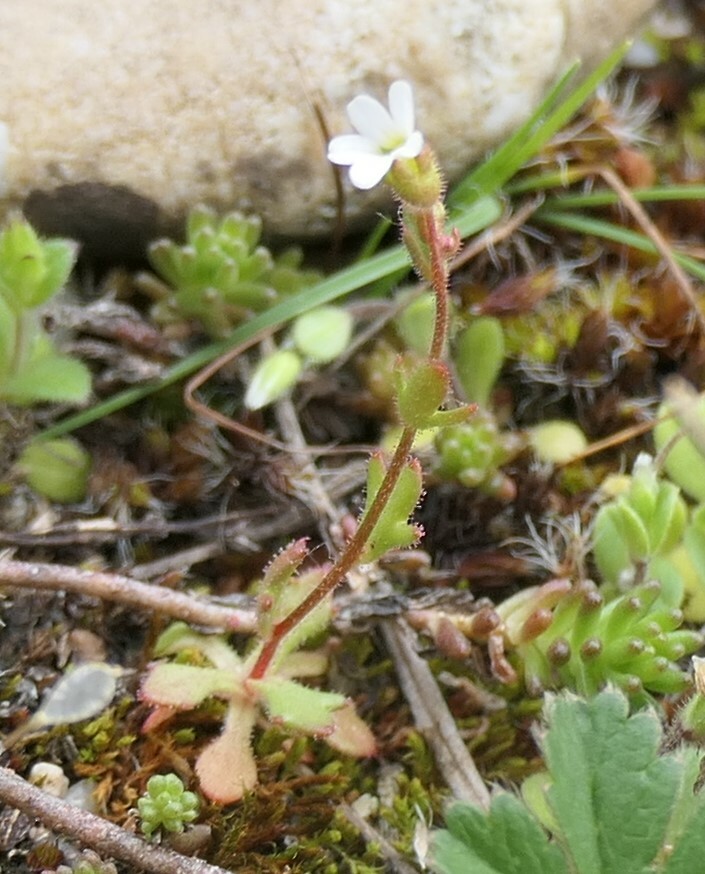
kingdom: Plantae
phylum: Tracheophyta
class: Magnoliopsida
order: Saxifragales
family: Saxifragaceae
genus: Saxifraga
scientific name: Saxifraga tridactylites
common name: Rue-leaved saxifrage
